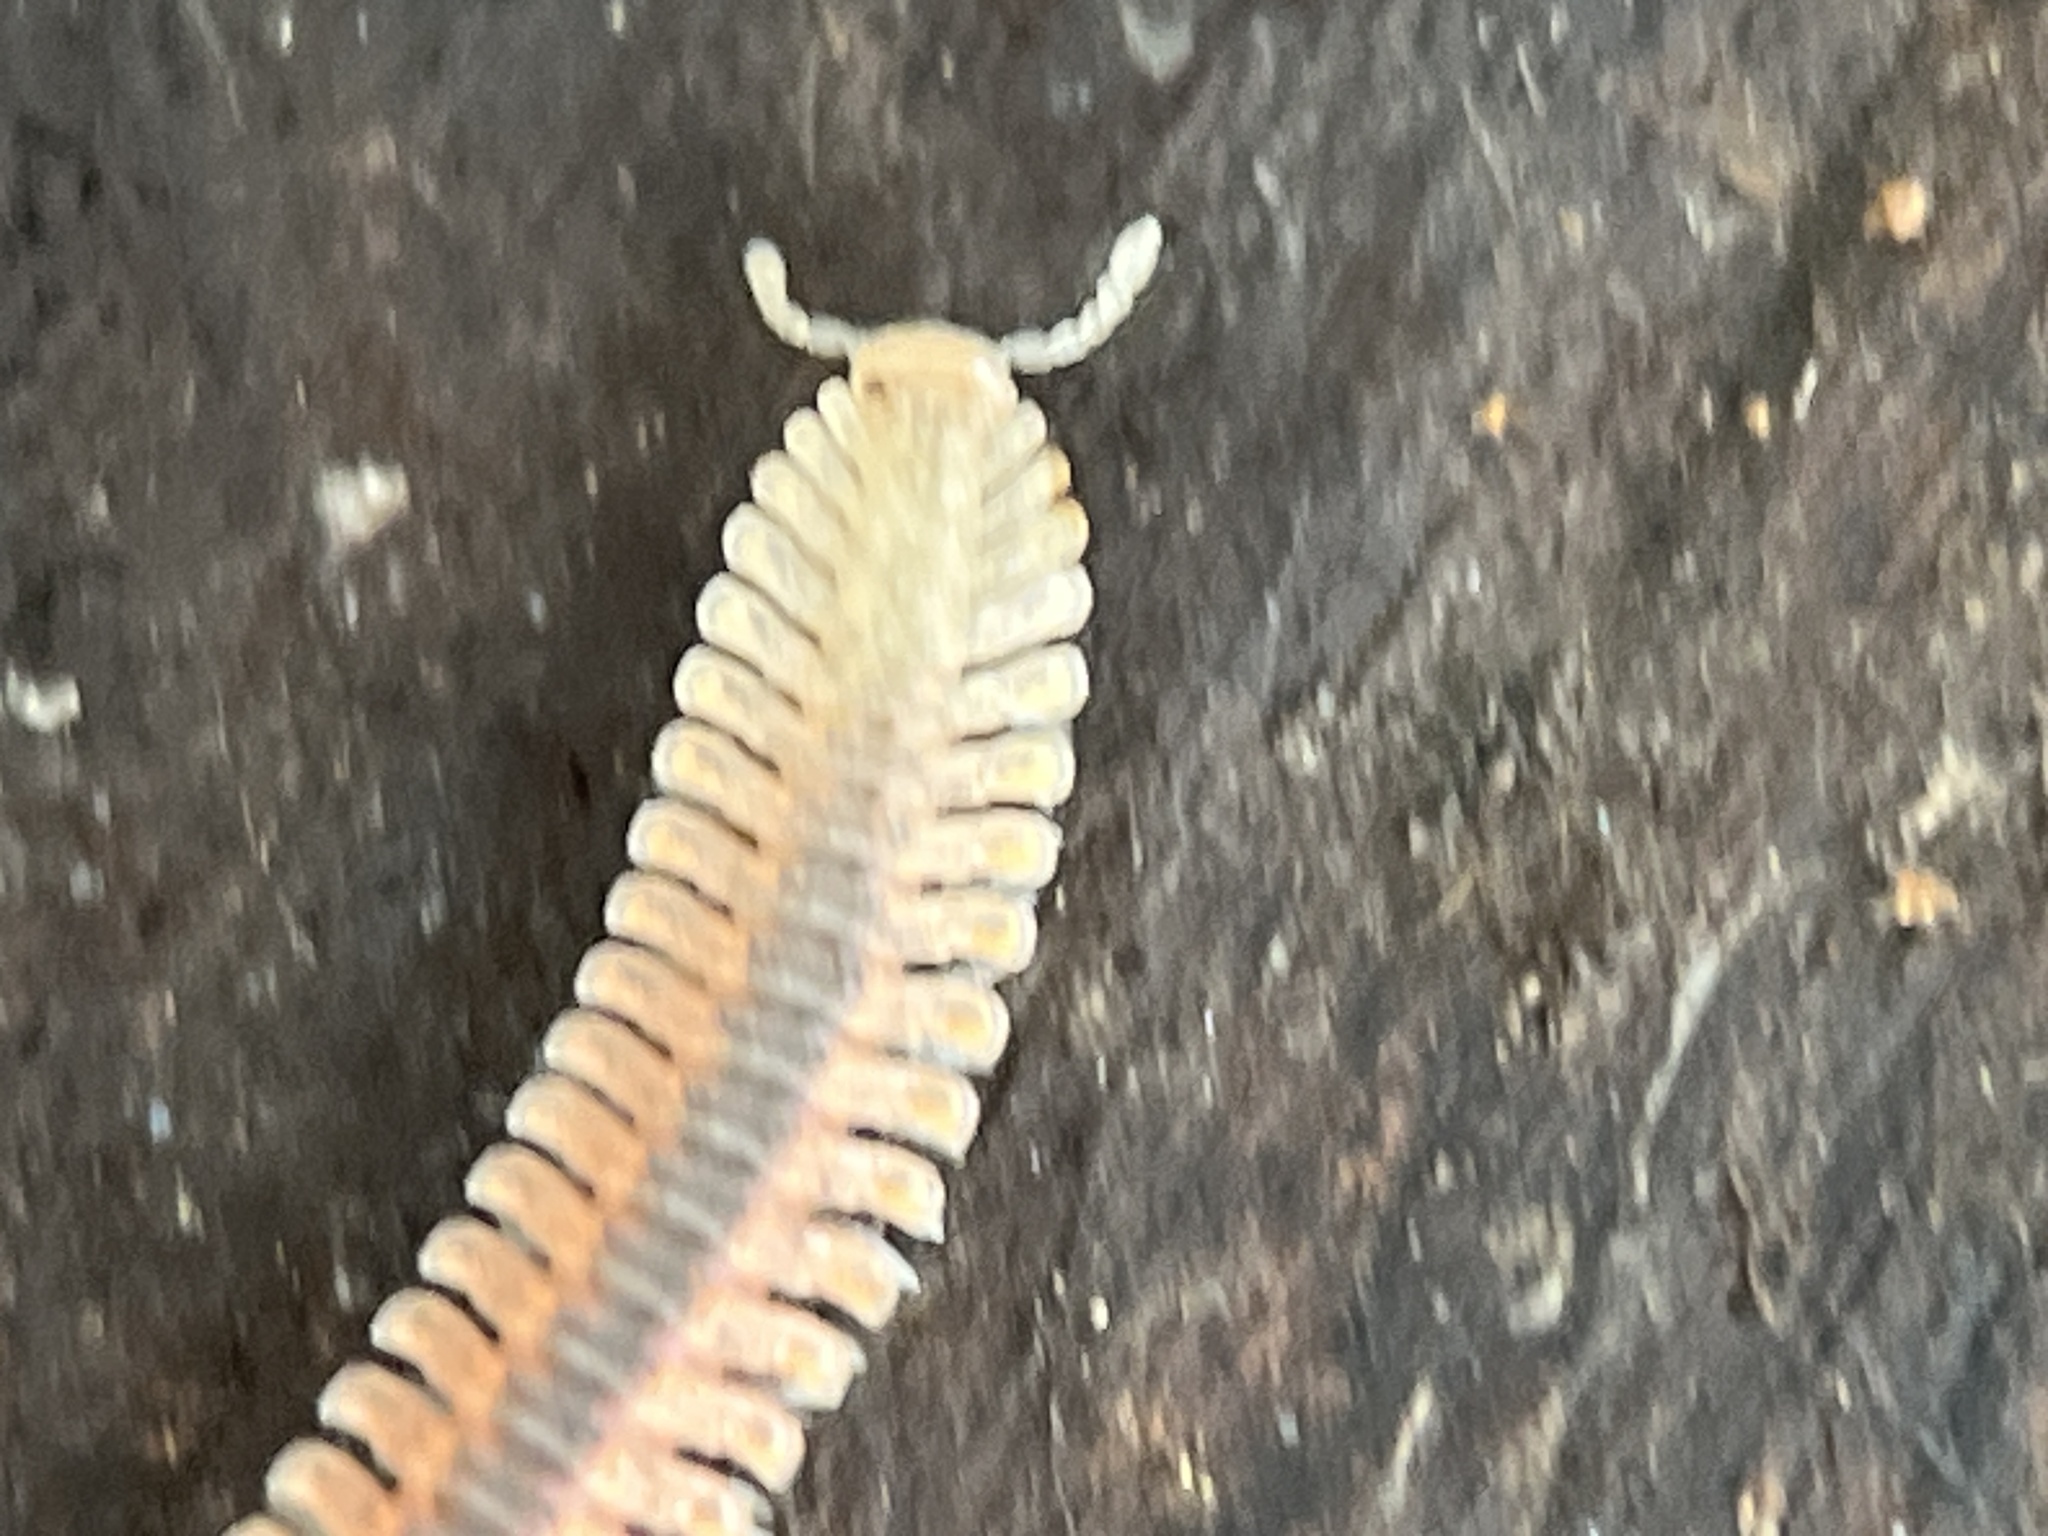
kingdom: Animalia
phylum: Arthropoda
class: Diplopoda
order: Platydesmida
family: Andrognathidae
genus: Brachycybe
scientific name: Brachycybe producta
